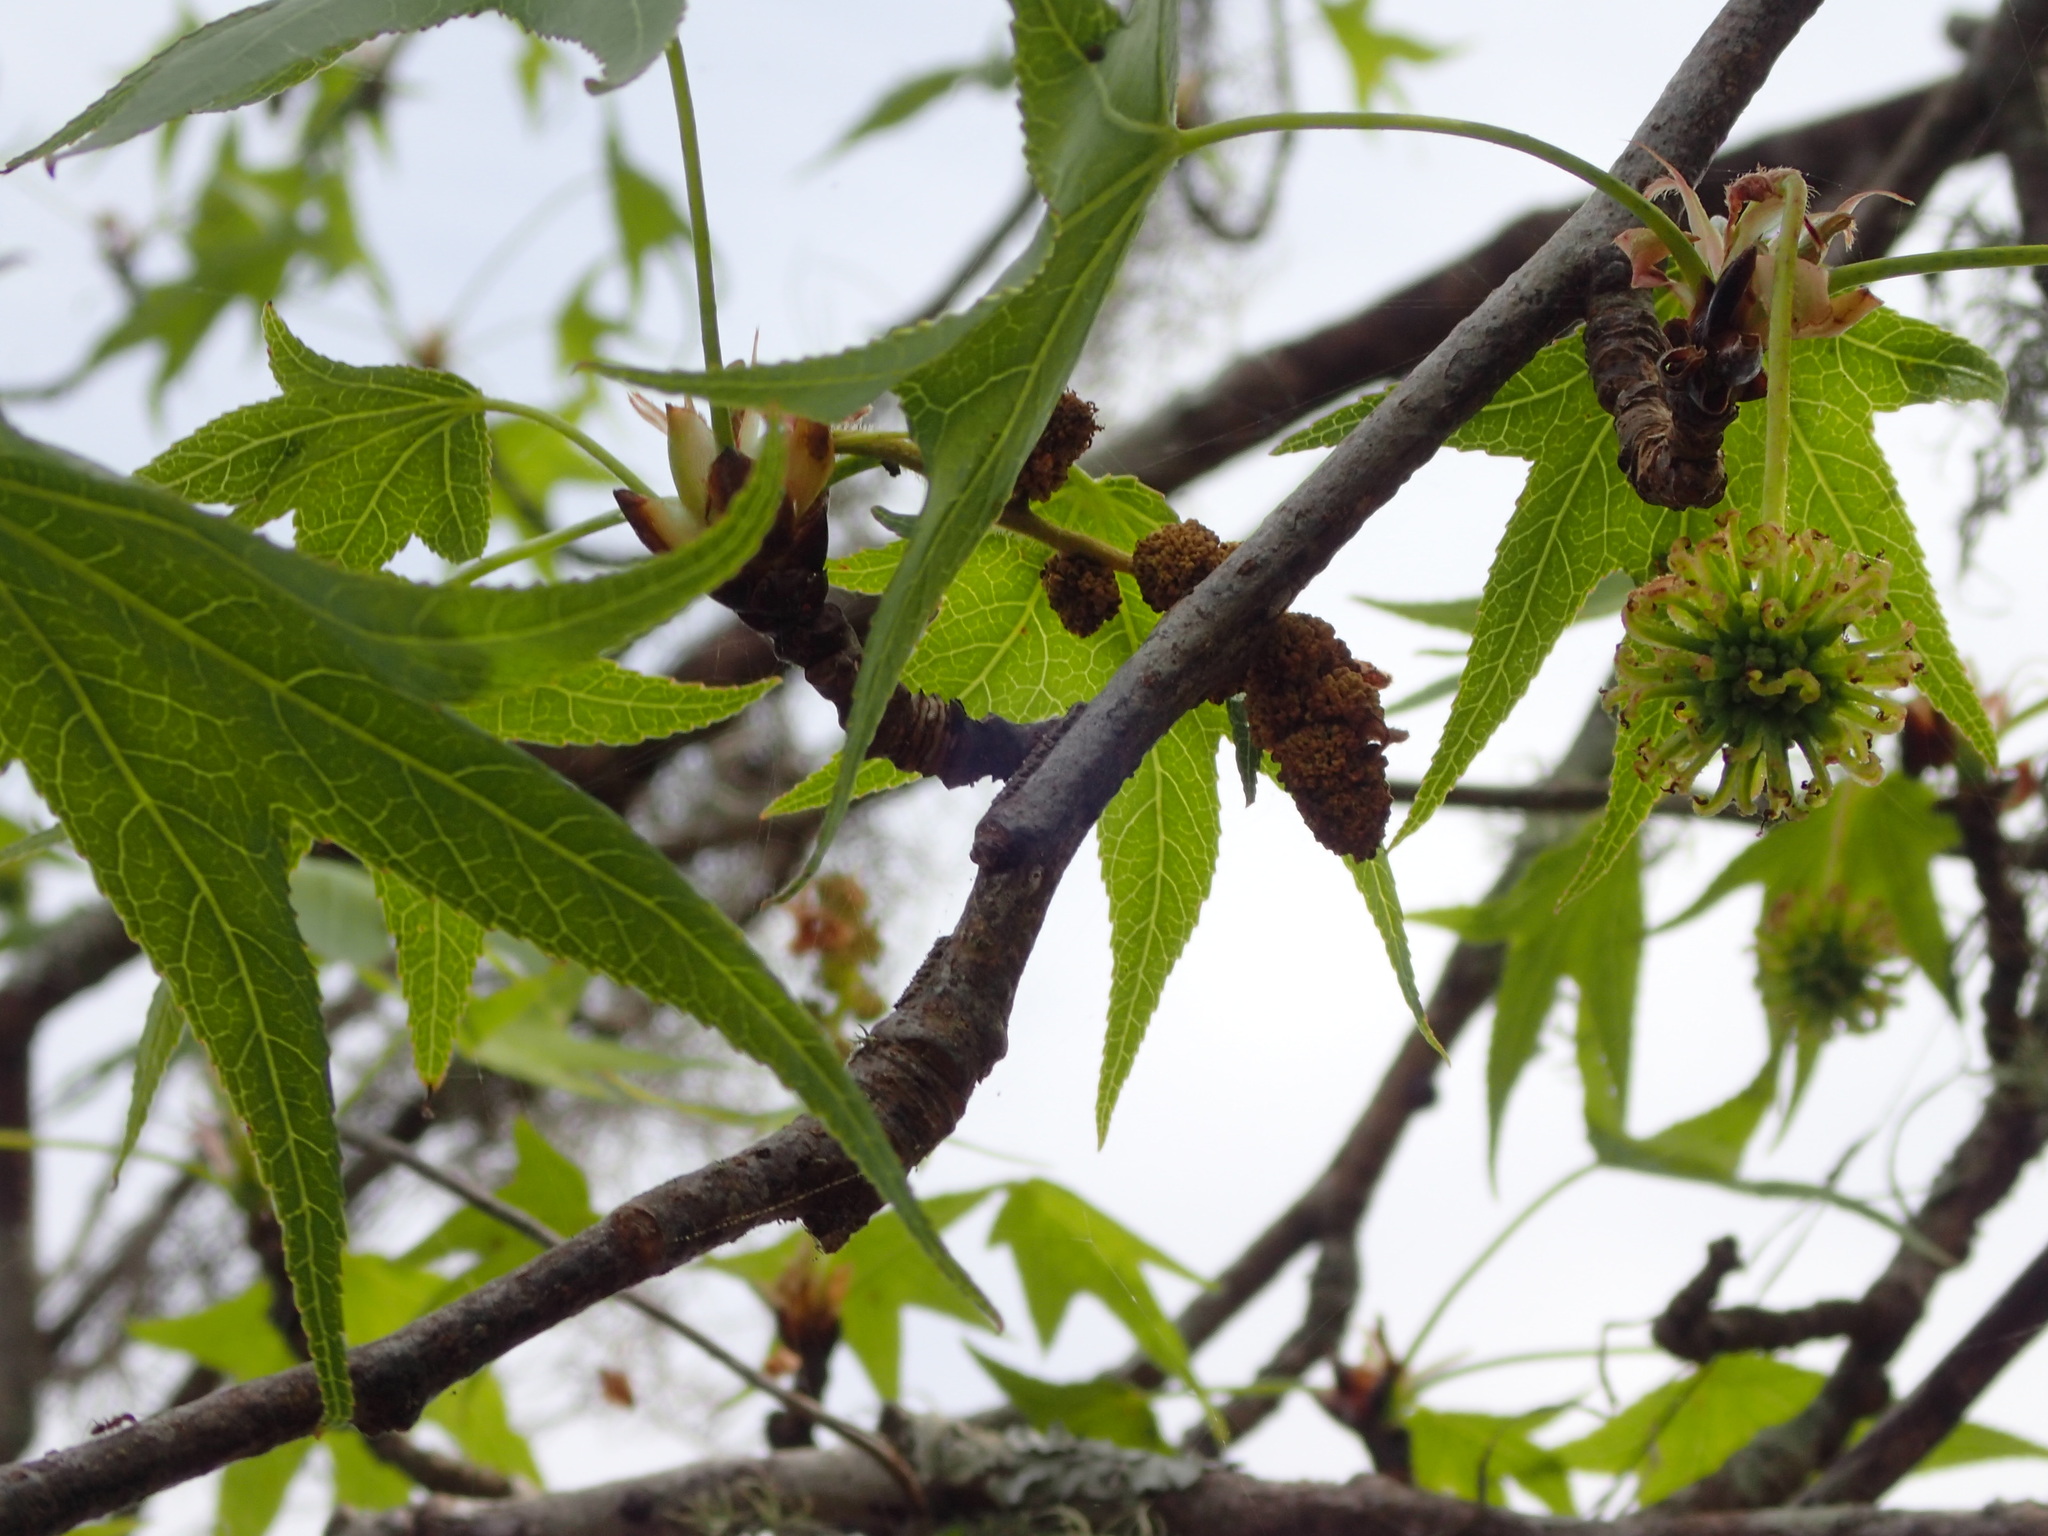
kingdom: Plantae
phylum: Tracheophyta
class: Magnoliopsida
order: Saxifragales
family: Altingiaceae
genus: Liquidambar
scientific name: Liquidambar styraciflua
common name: Sweet gum
